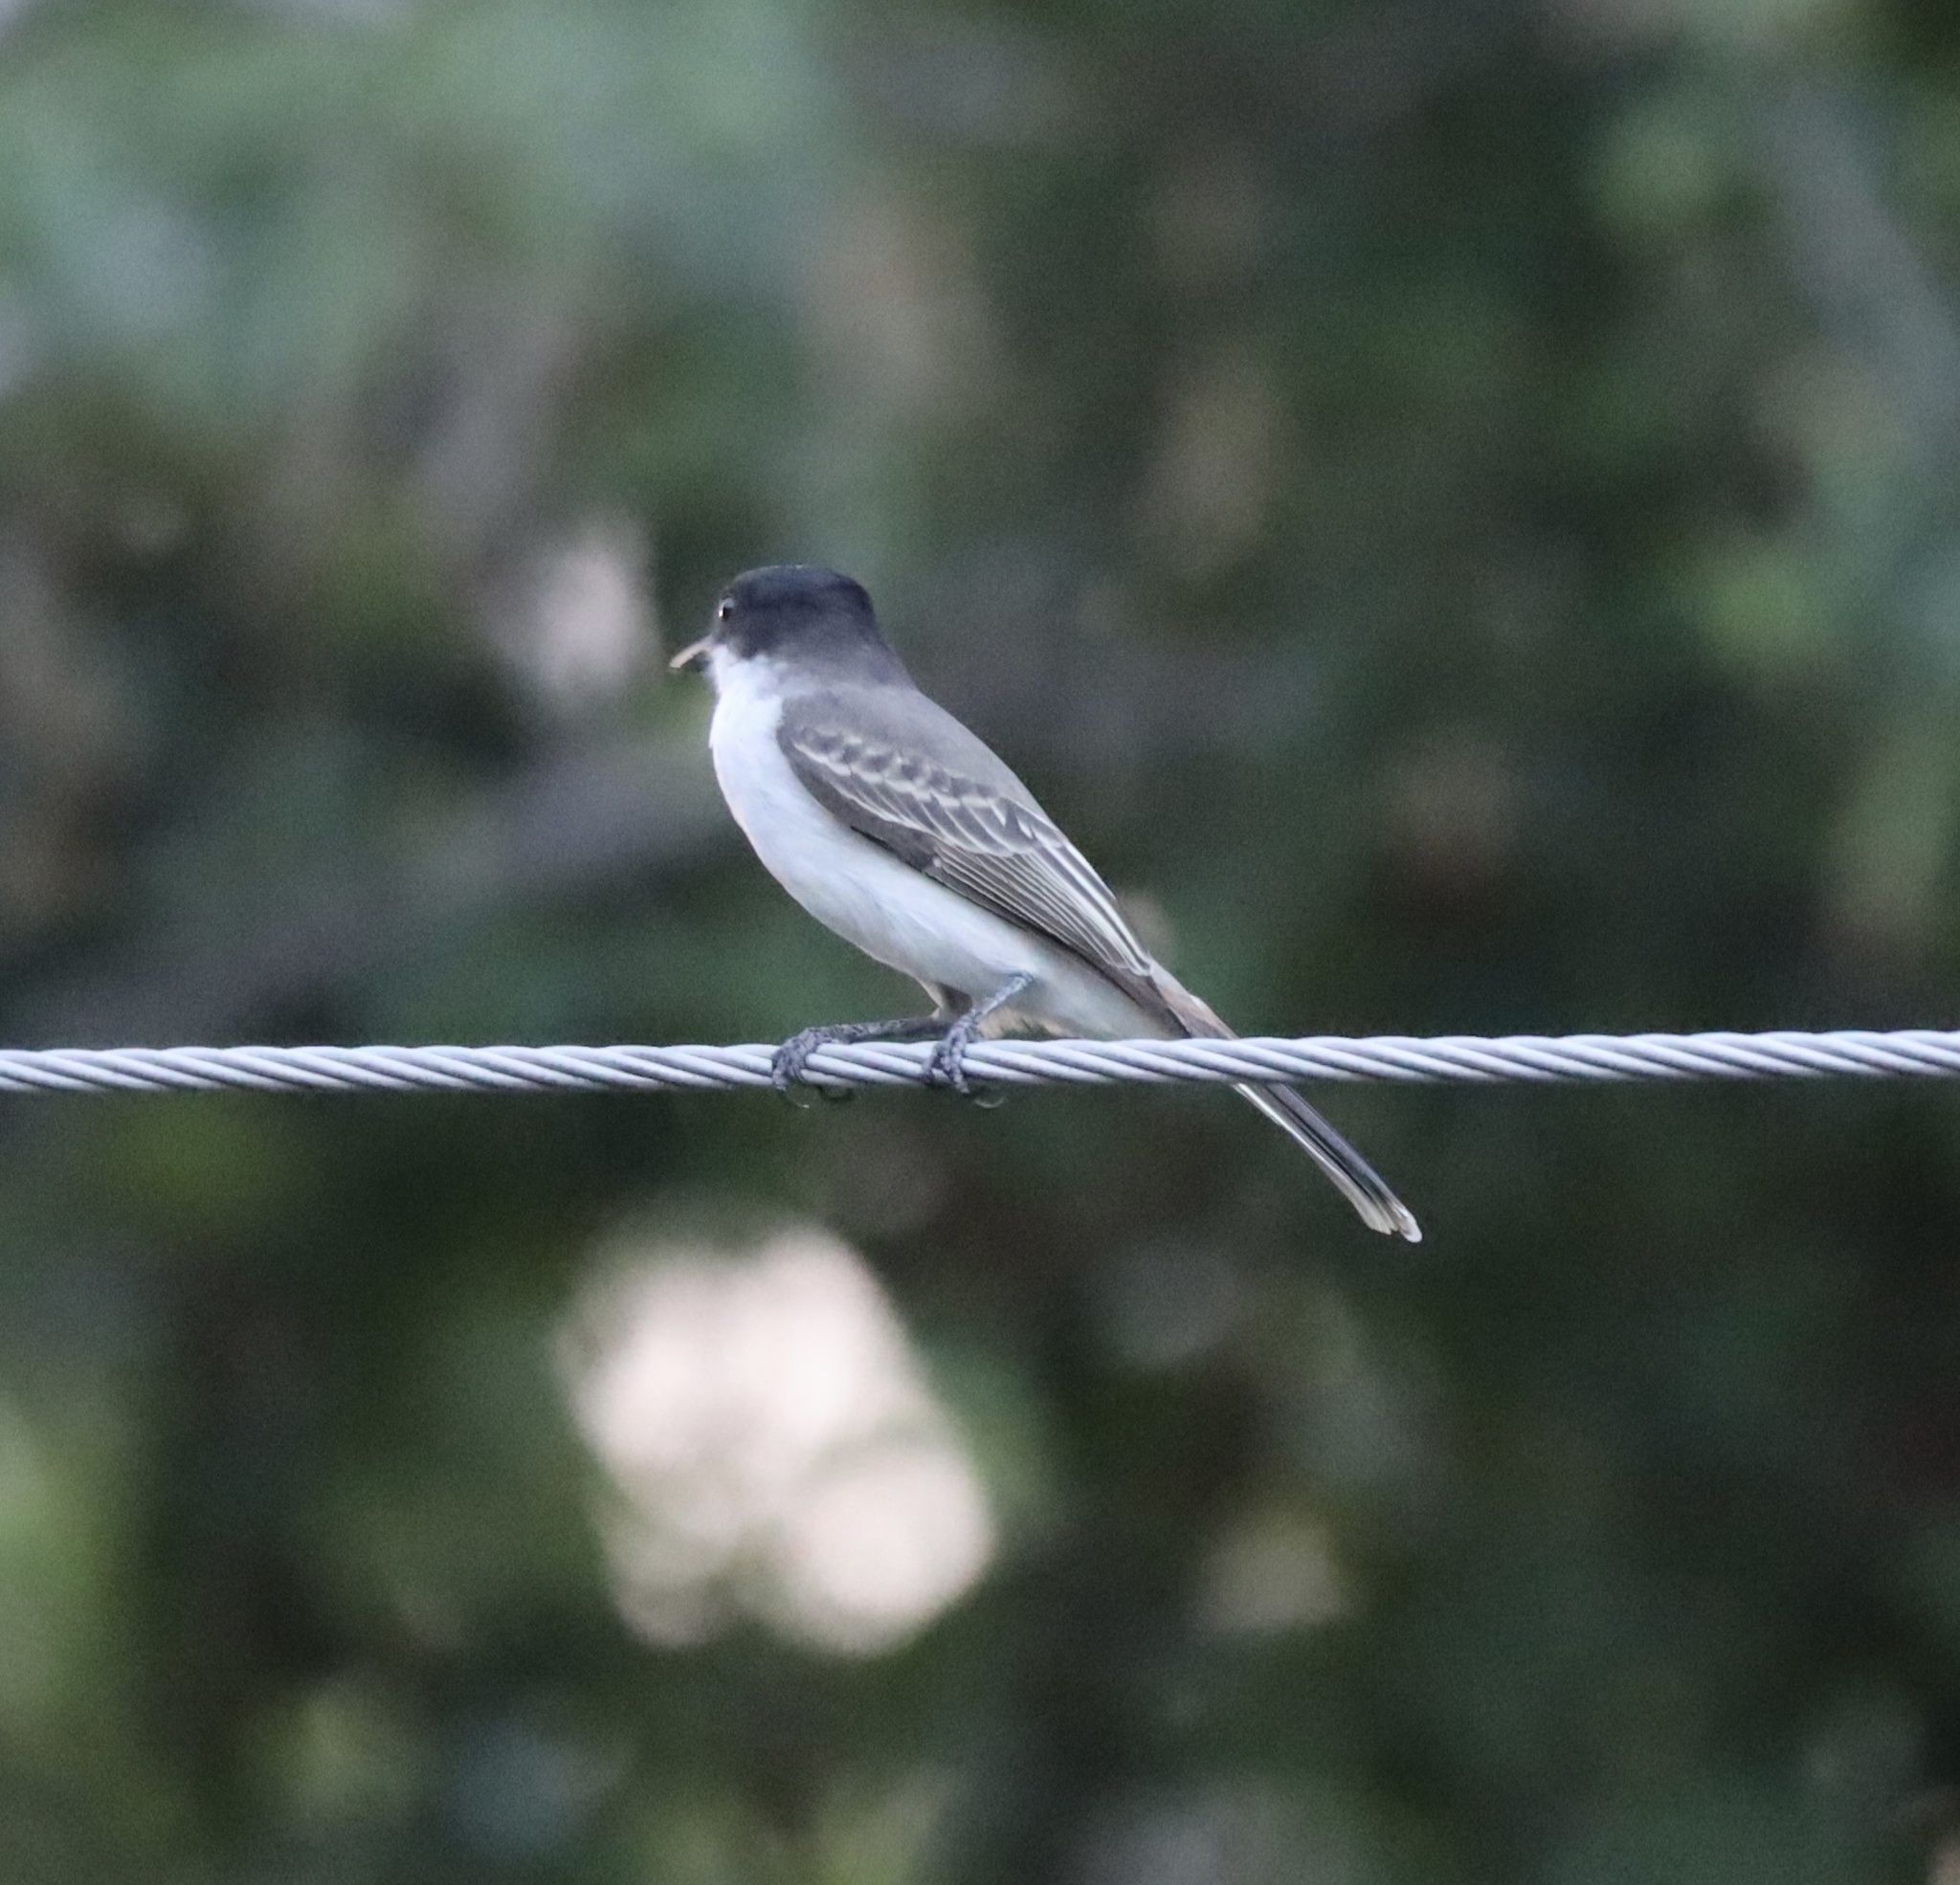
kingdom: Animalia
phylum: Chordata
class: Aves
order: Passeriformes
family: Tyrannidae
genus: Tyrannus
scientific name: Tyrannus caudifasciatus
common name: Loggerhead kingbird
